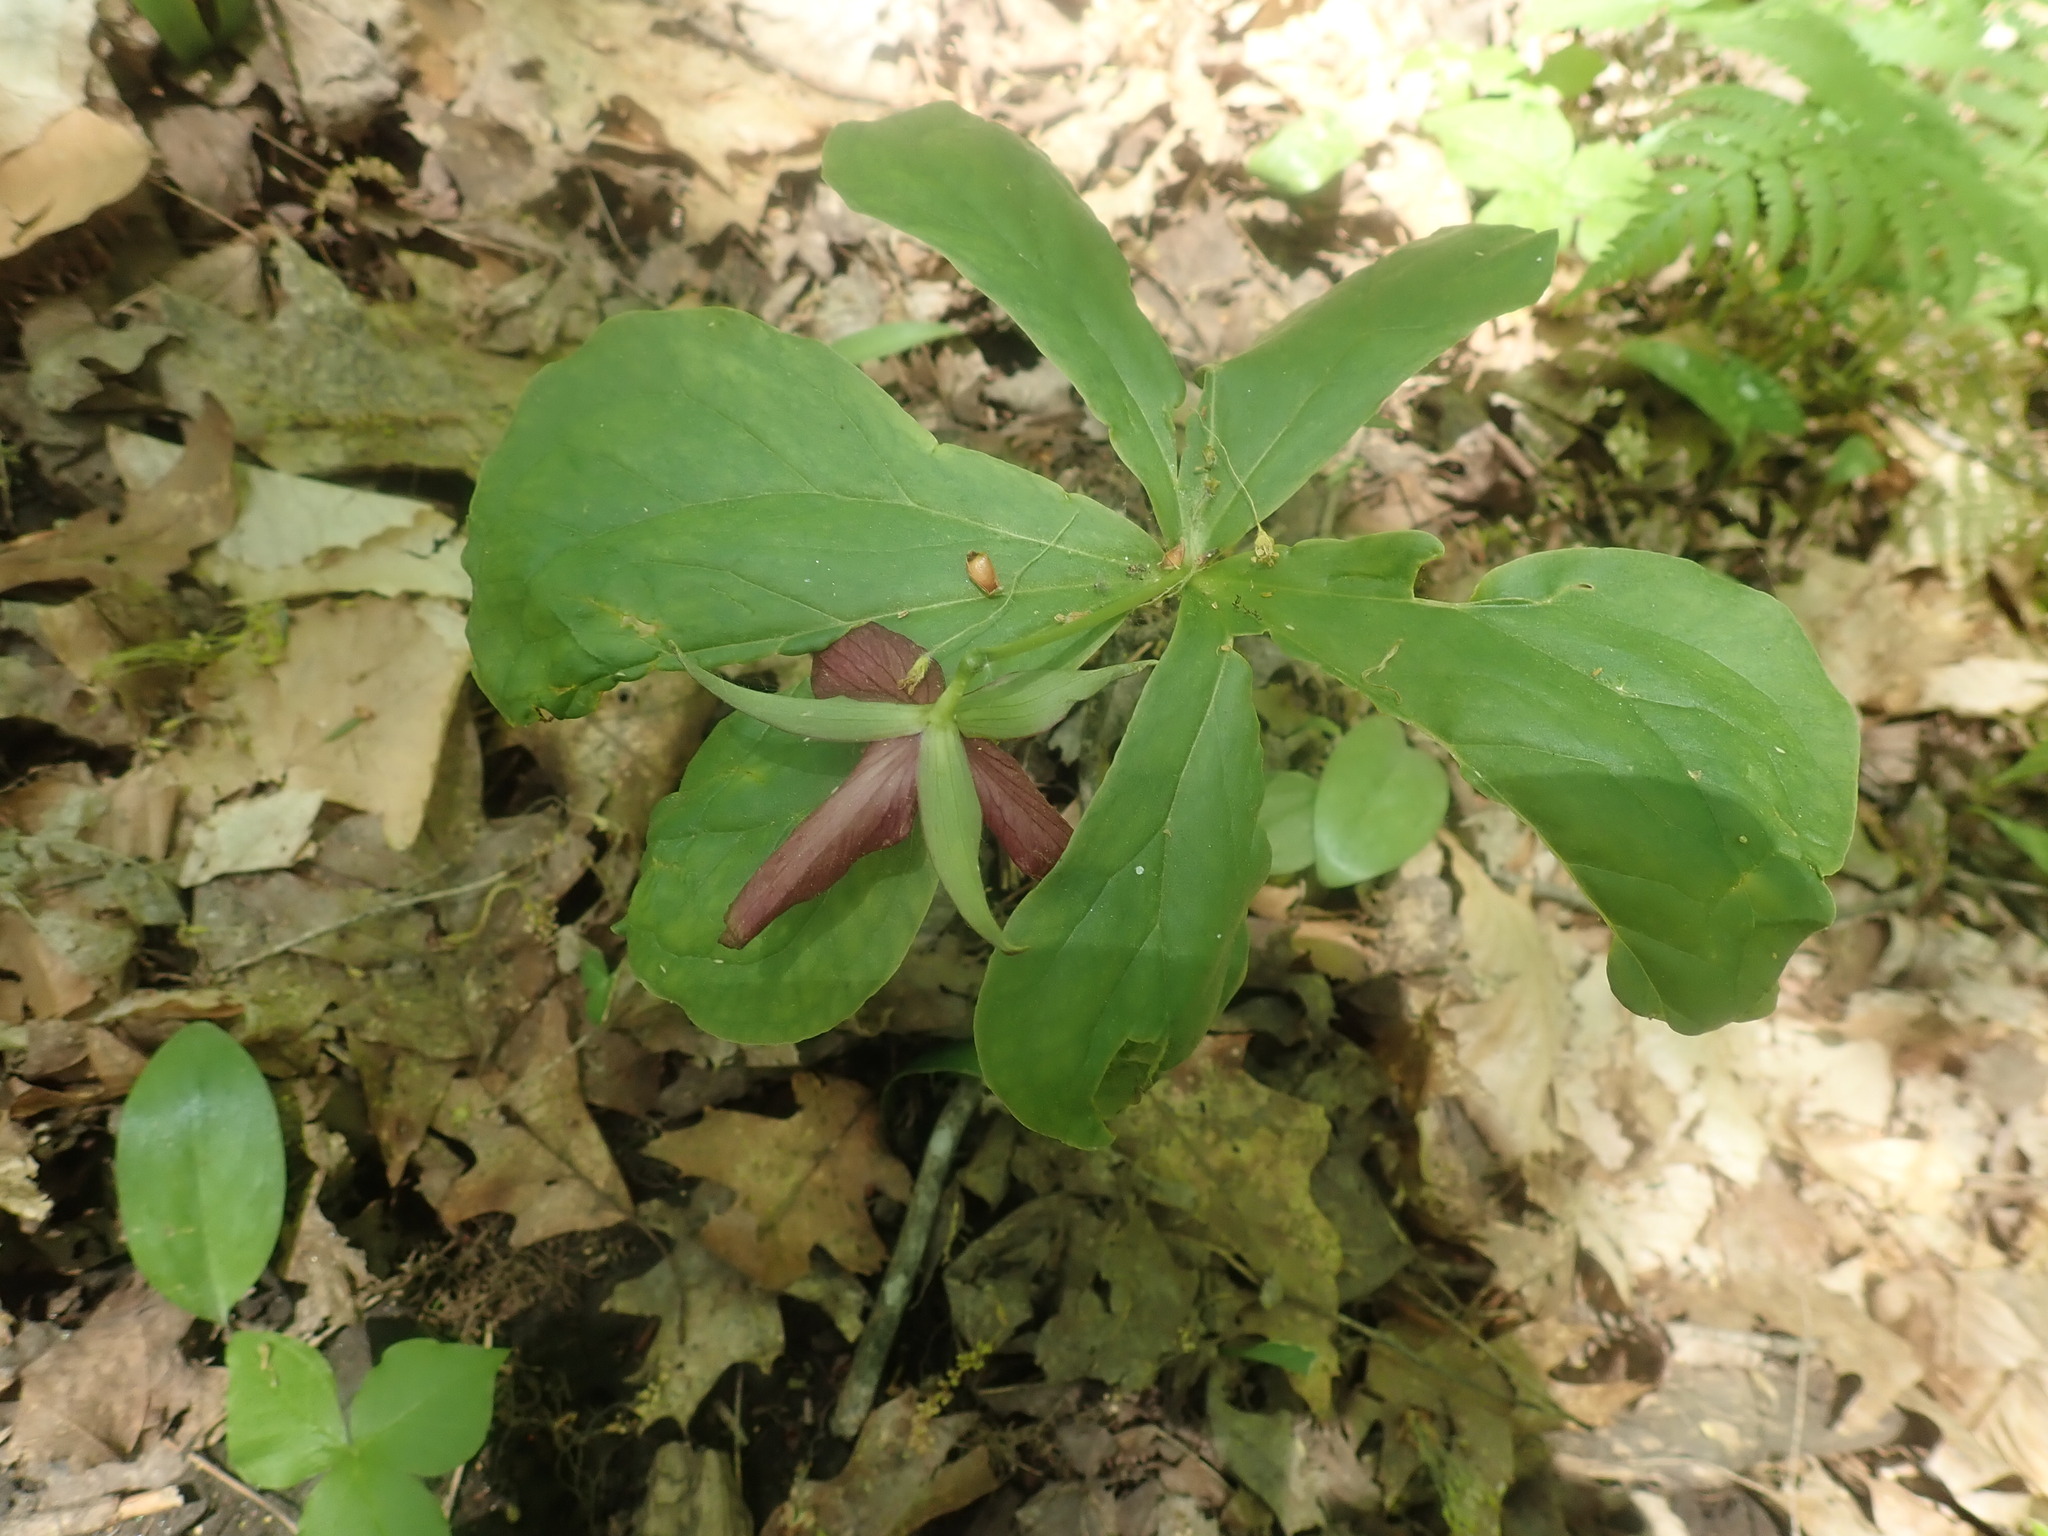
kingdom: Plantae
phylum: Tracheophyta
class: Liliopsida
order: Liliales
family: Melanthiaceae
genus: Trillium
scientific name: Trillium erectum
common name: Purple trillium
